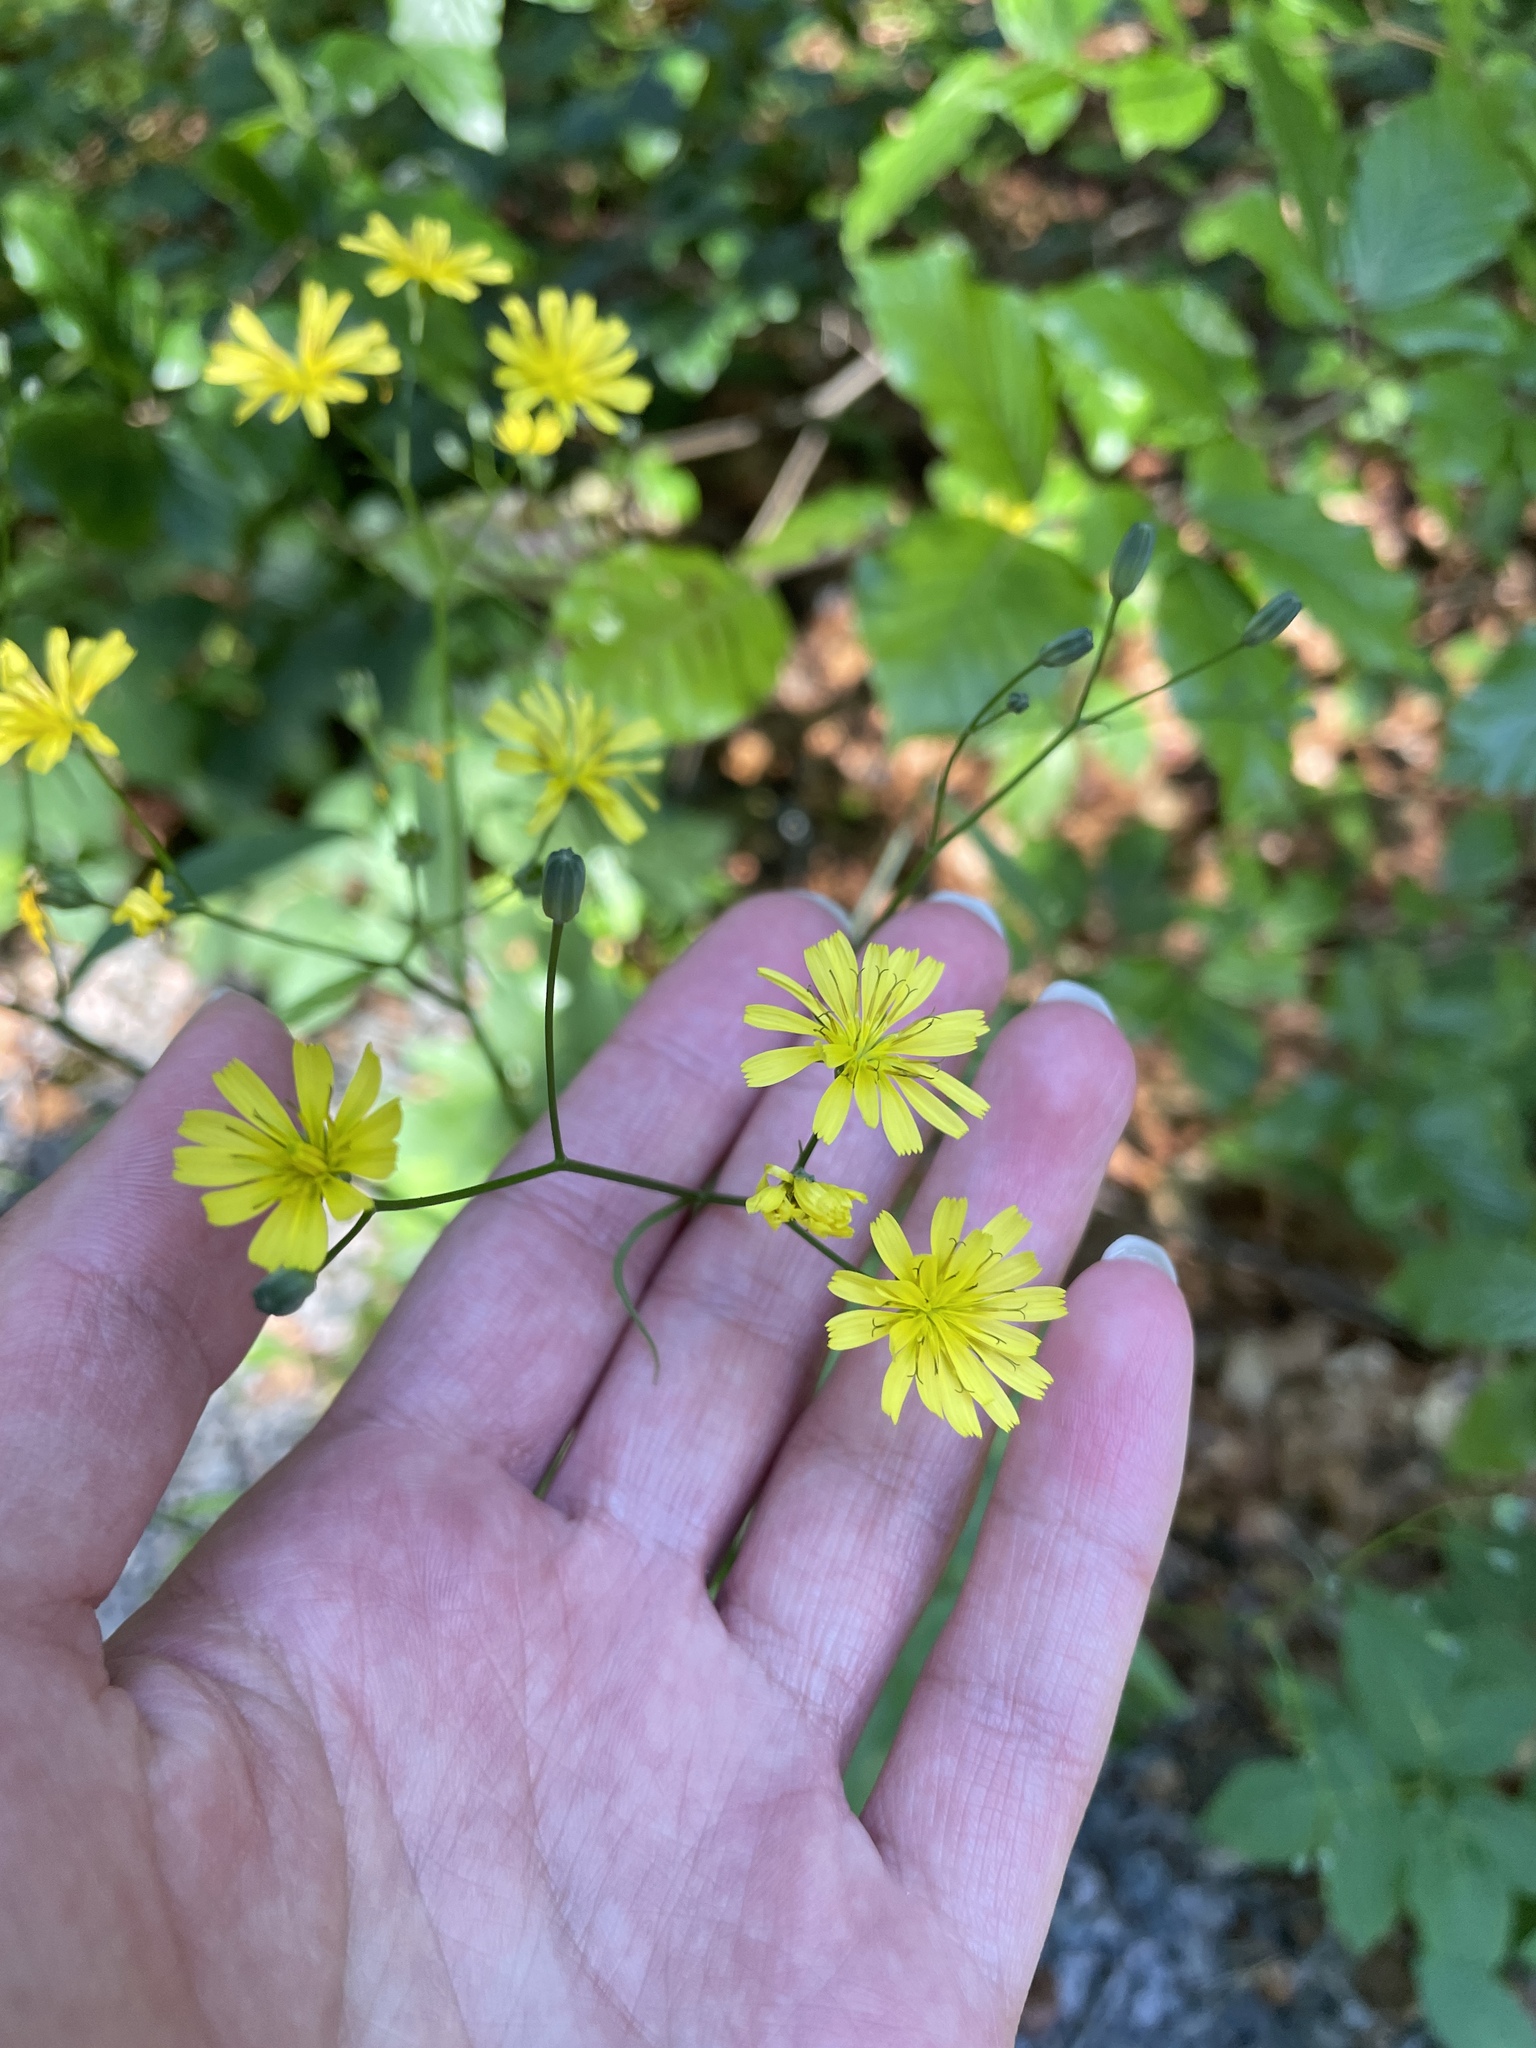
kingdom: Plantae
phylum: Tracheophyta
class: Magnoliopsida
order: Asterales
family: Asteraceae
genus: Lapsana
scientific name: Lapsana communis
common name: Nipplewort
